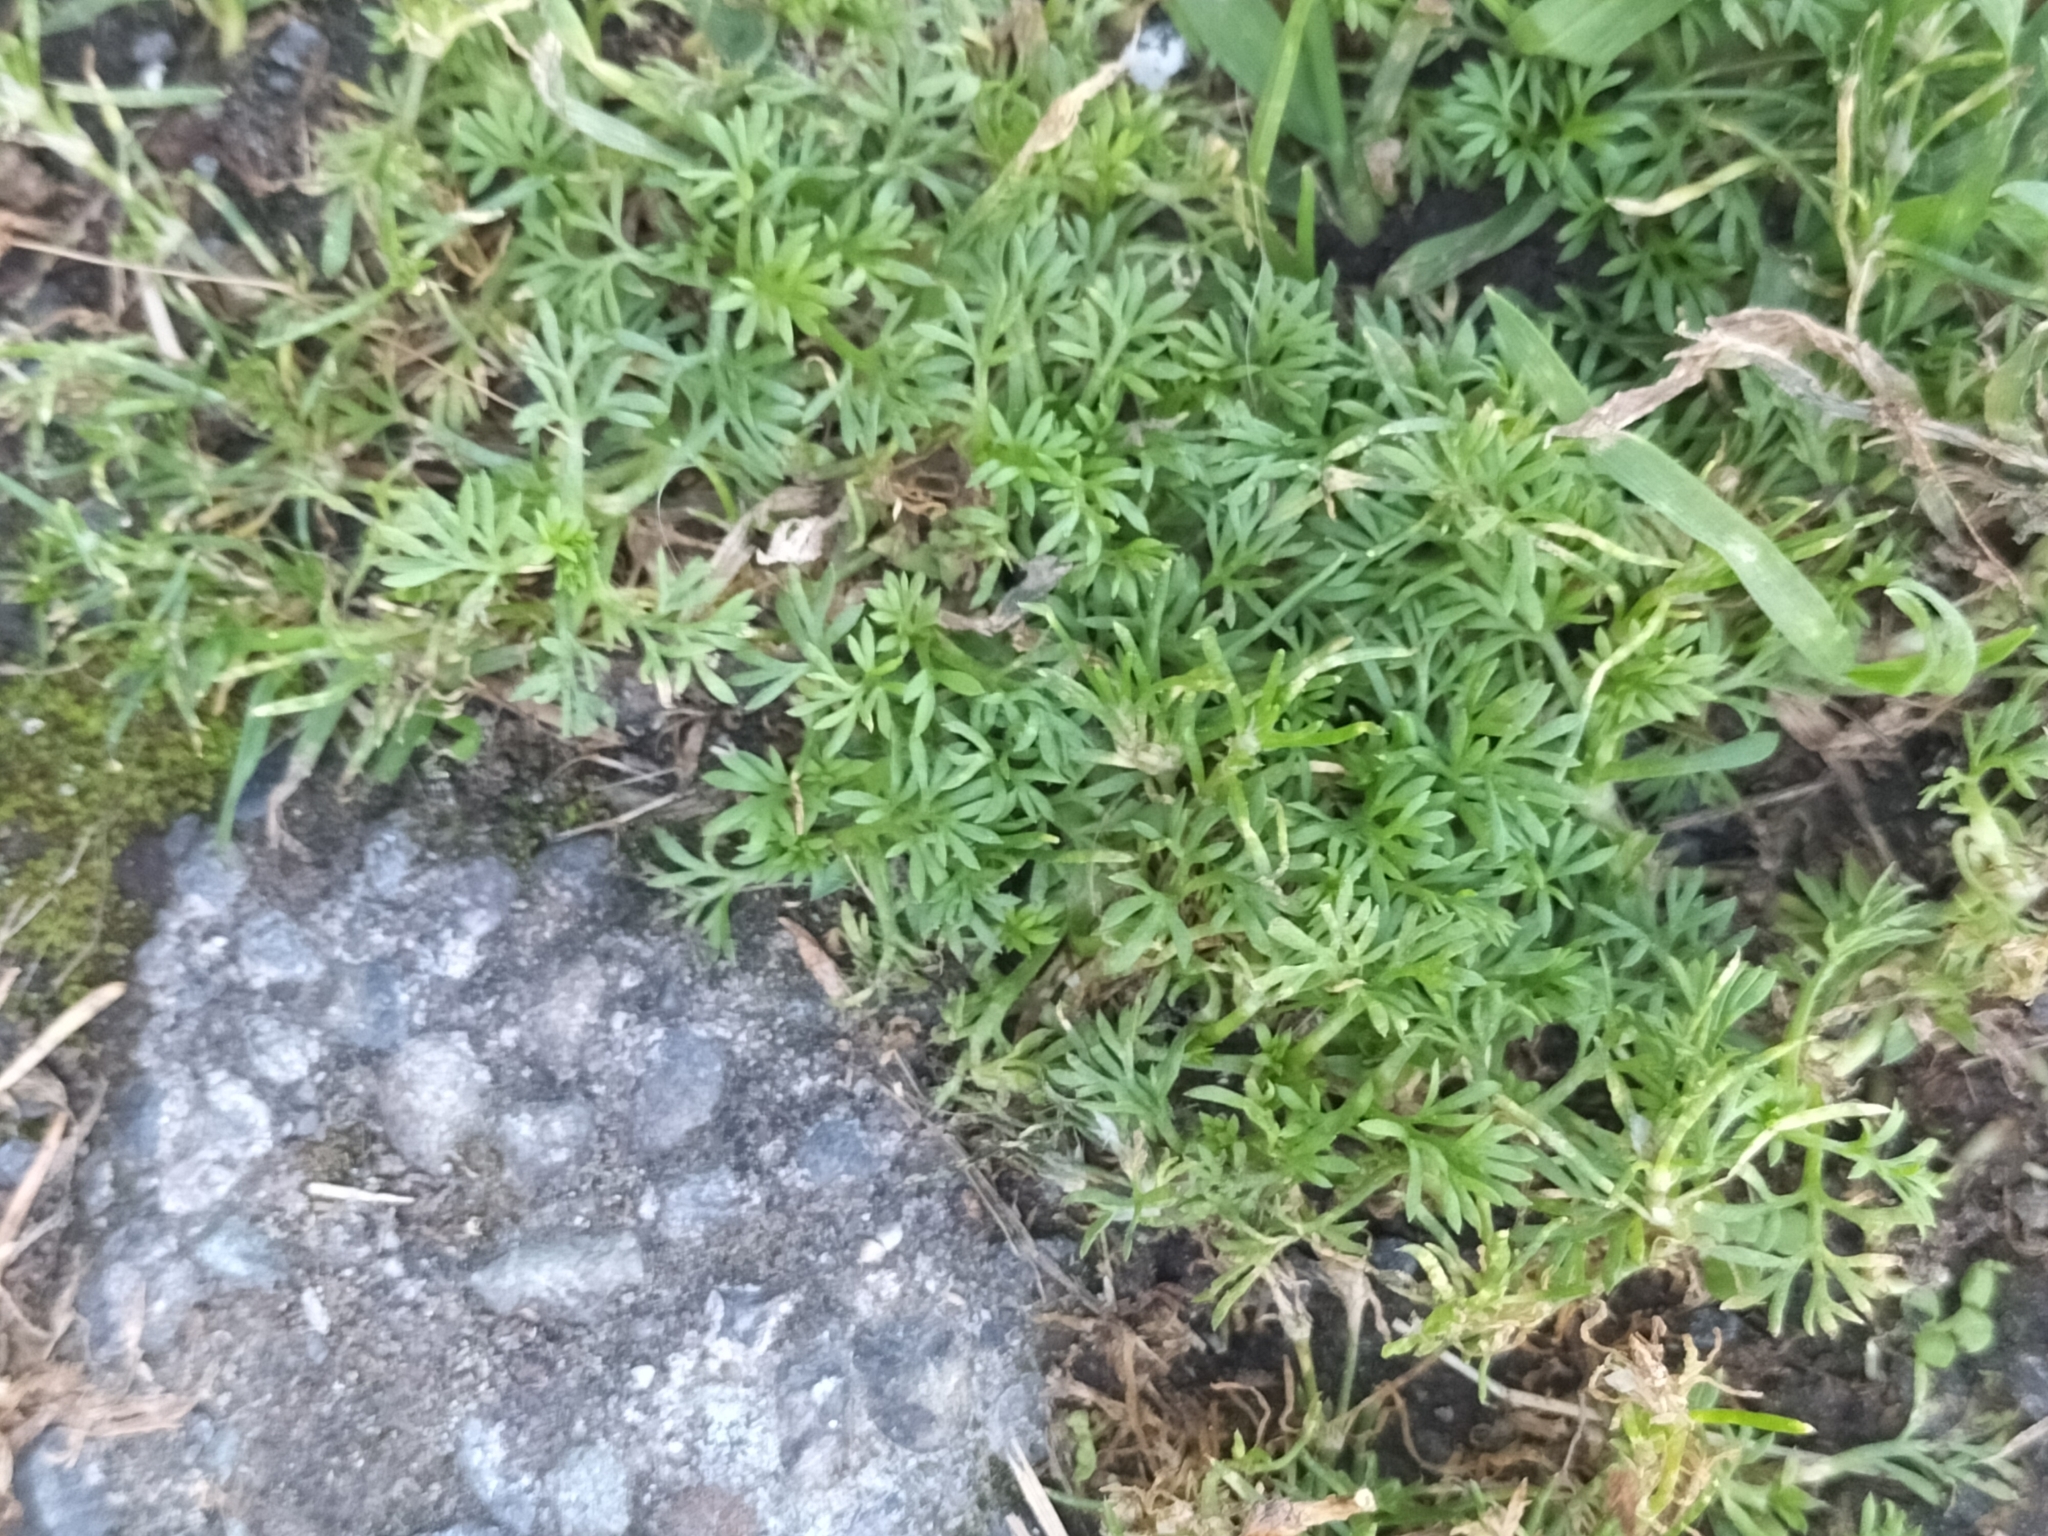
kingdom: Plantae
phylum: Tracheophyta
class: Magnoliopsida
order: Asterales
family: Asteraceae
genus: Soliva
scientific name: Soliva sessilis
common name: Field burrweed
